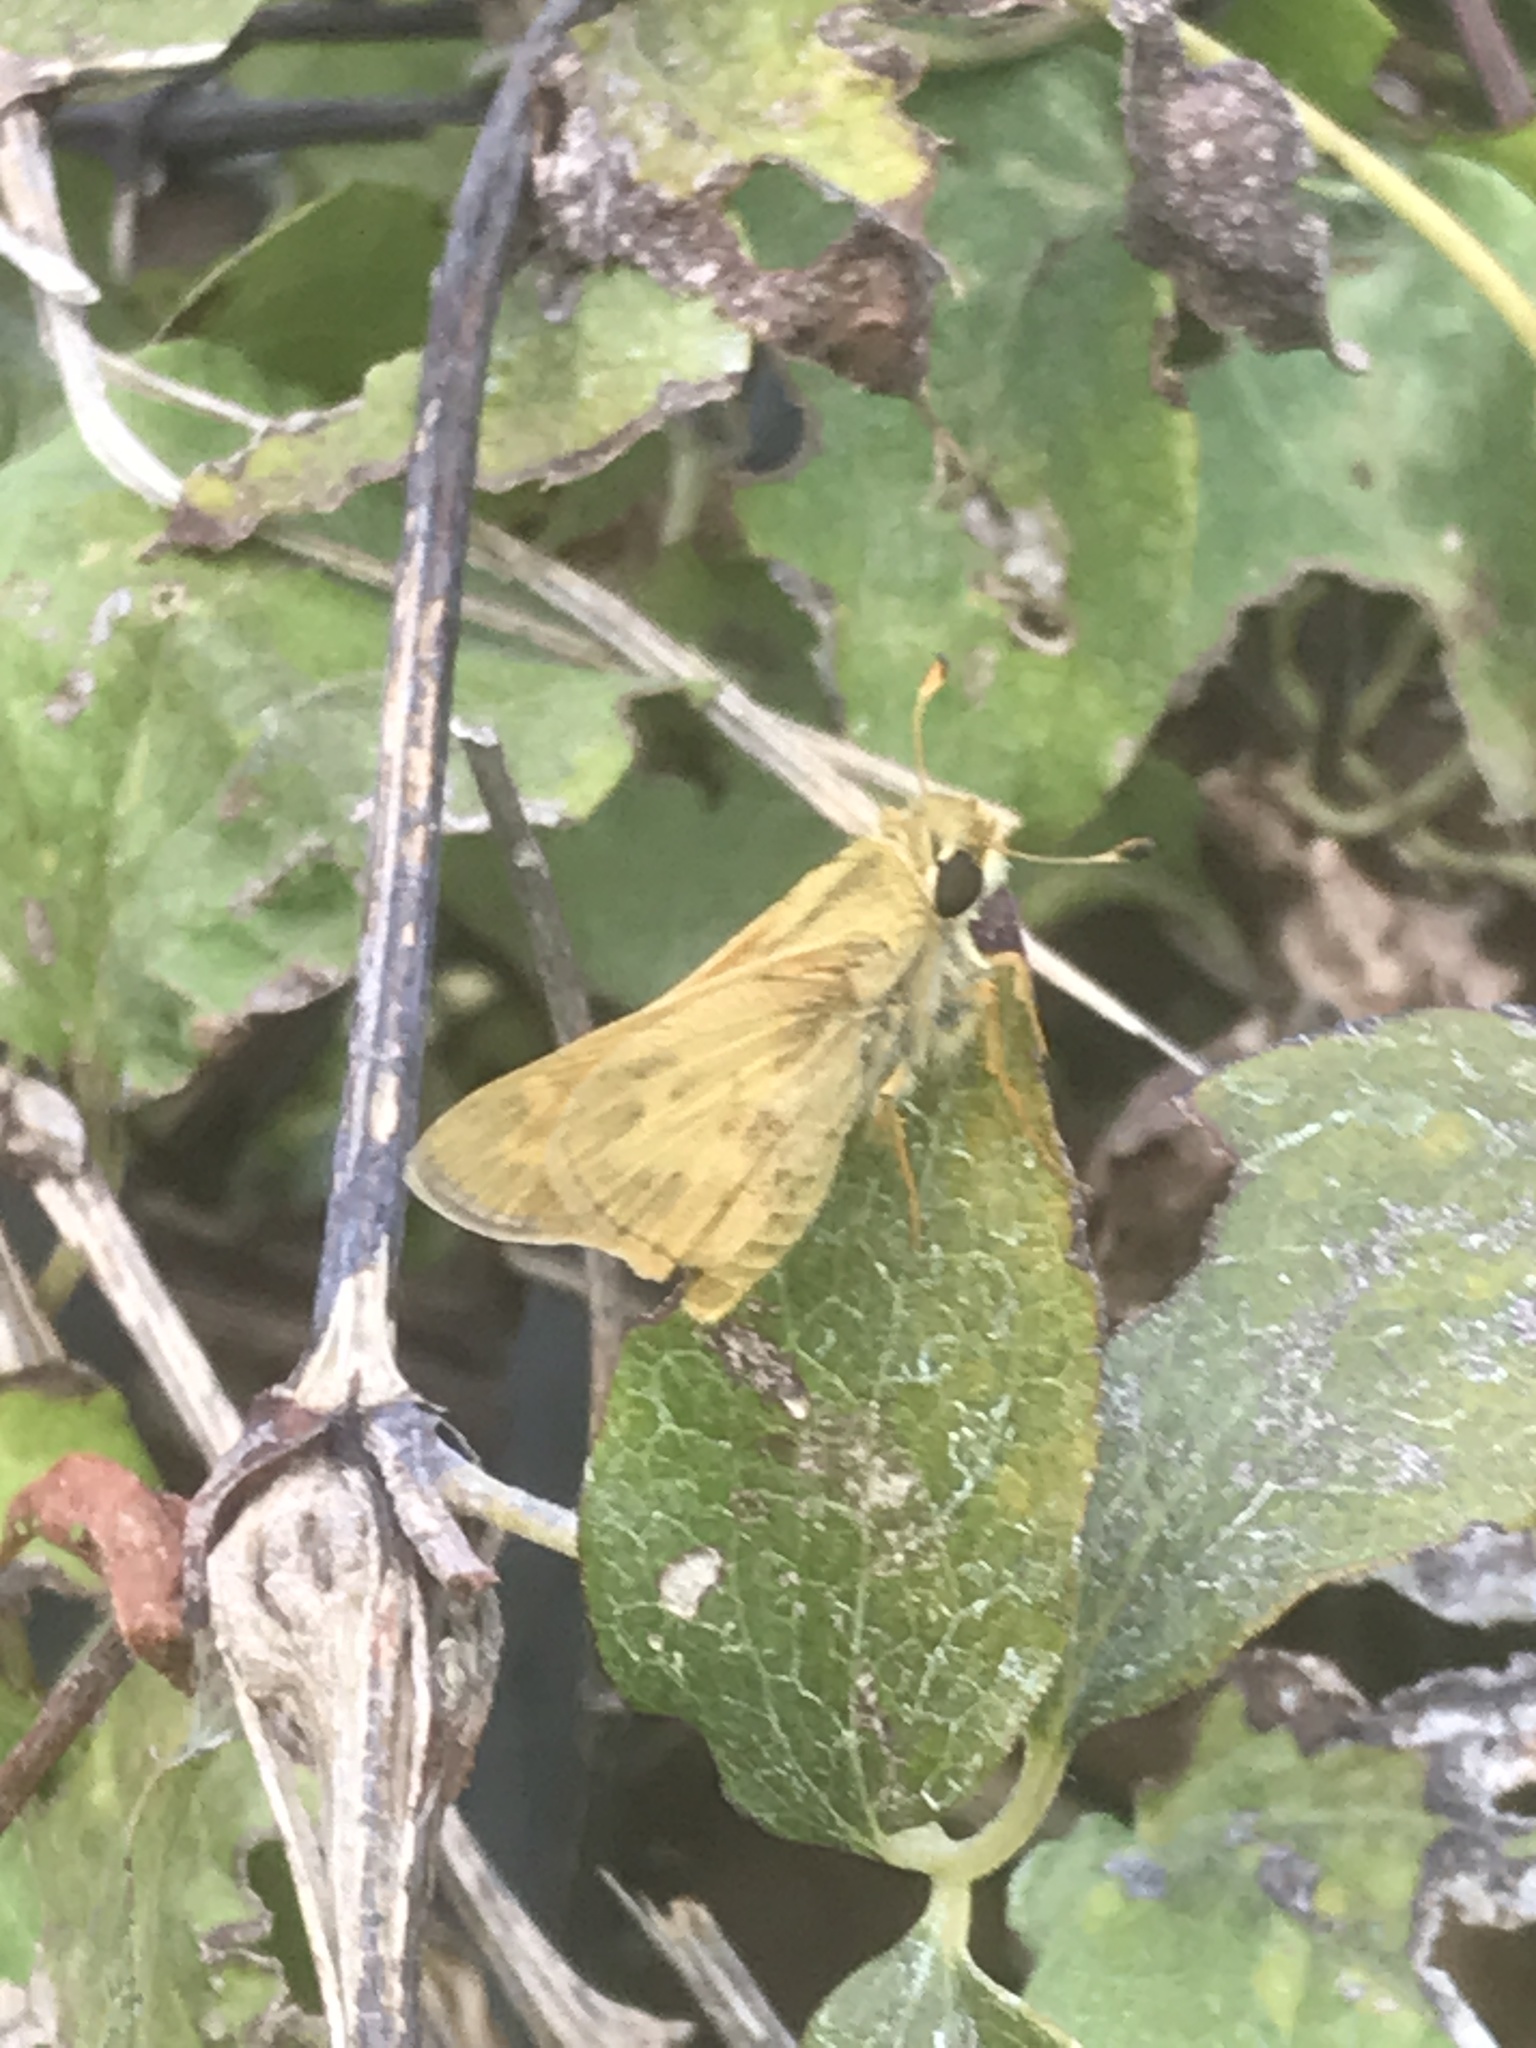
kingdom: Animalia
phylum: Arthropoda
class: Insecta
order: Lepidoptera
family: Hesperiidae
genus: Hylephila
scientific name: Hylephila phyleus
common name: Fiery skipper
